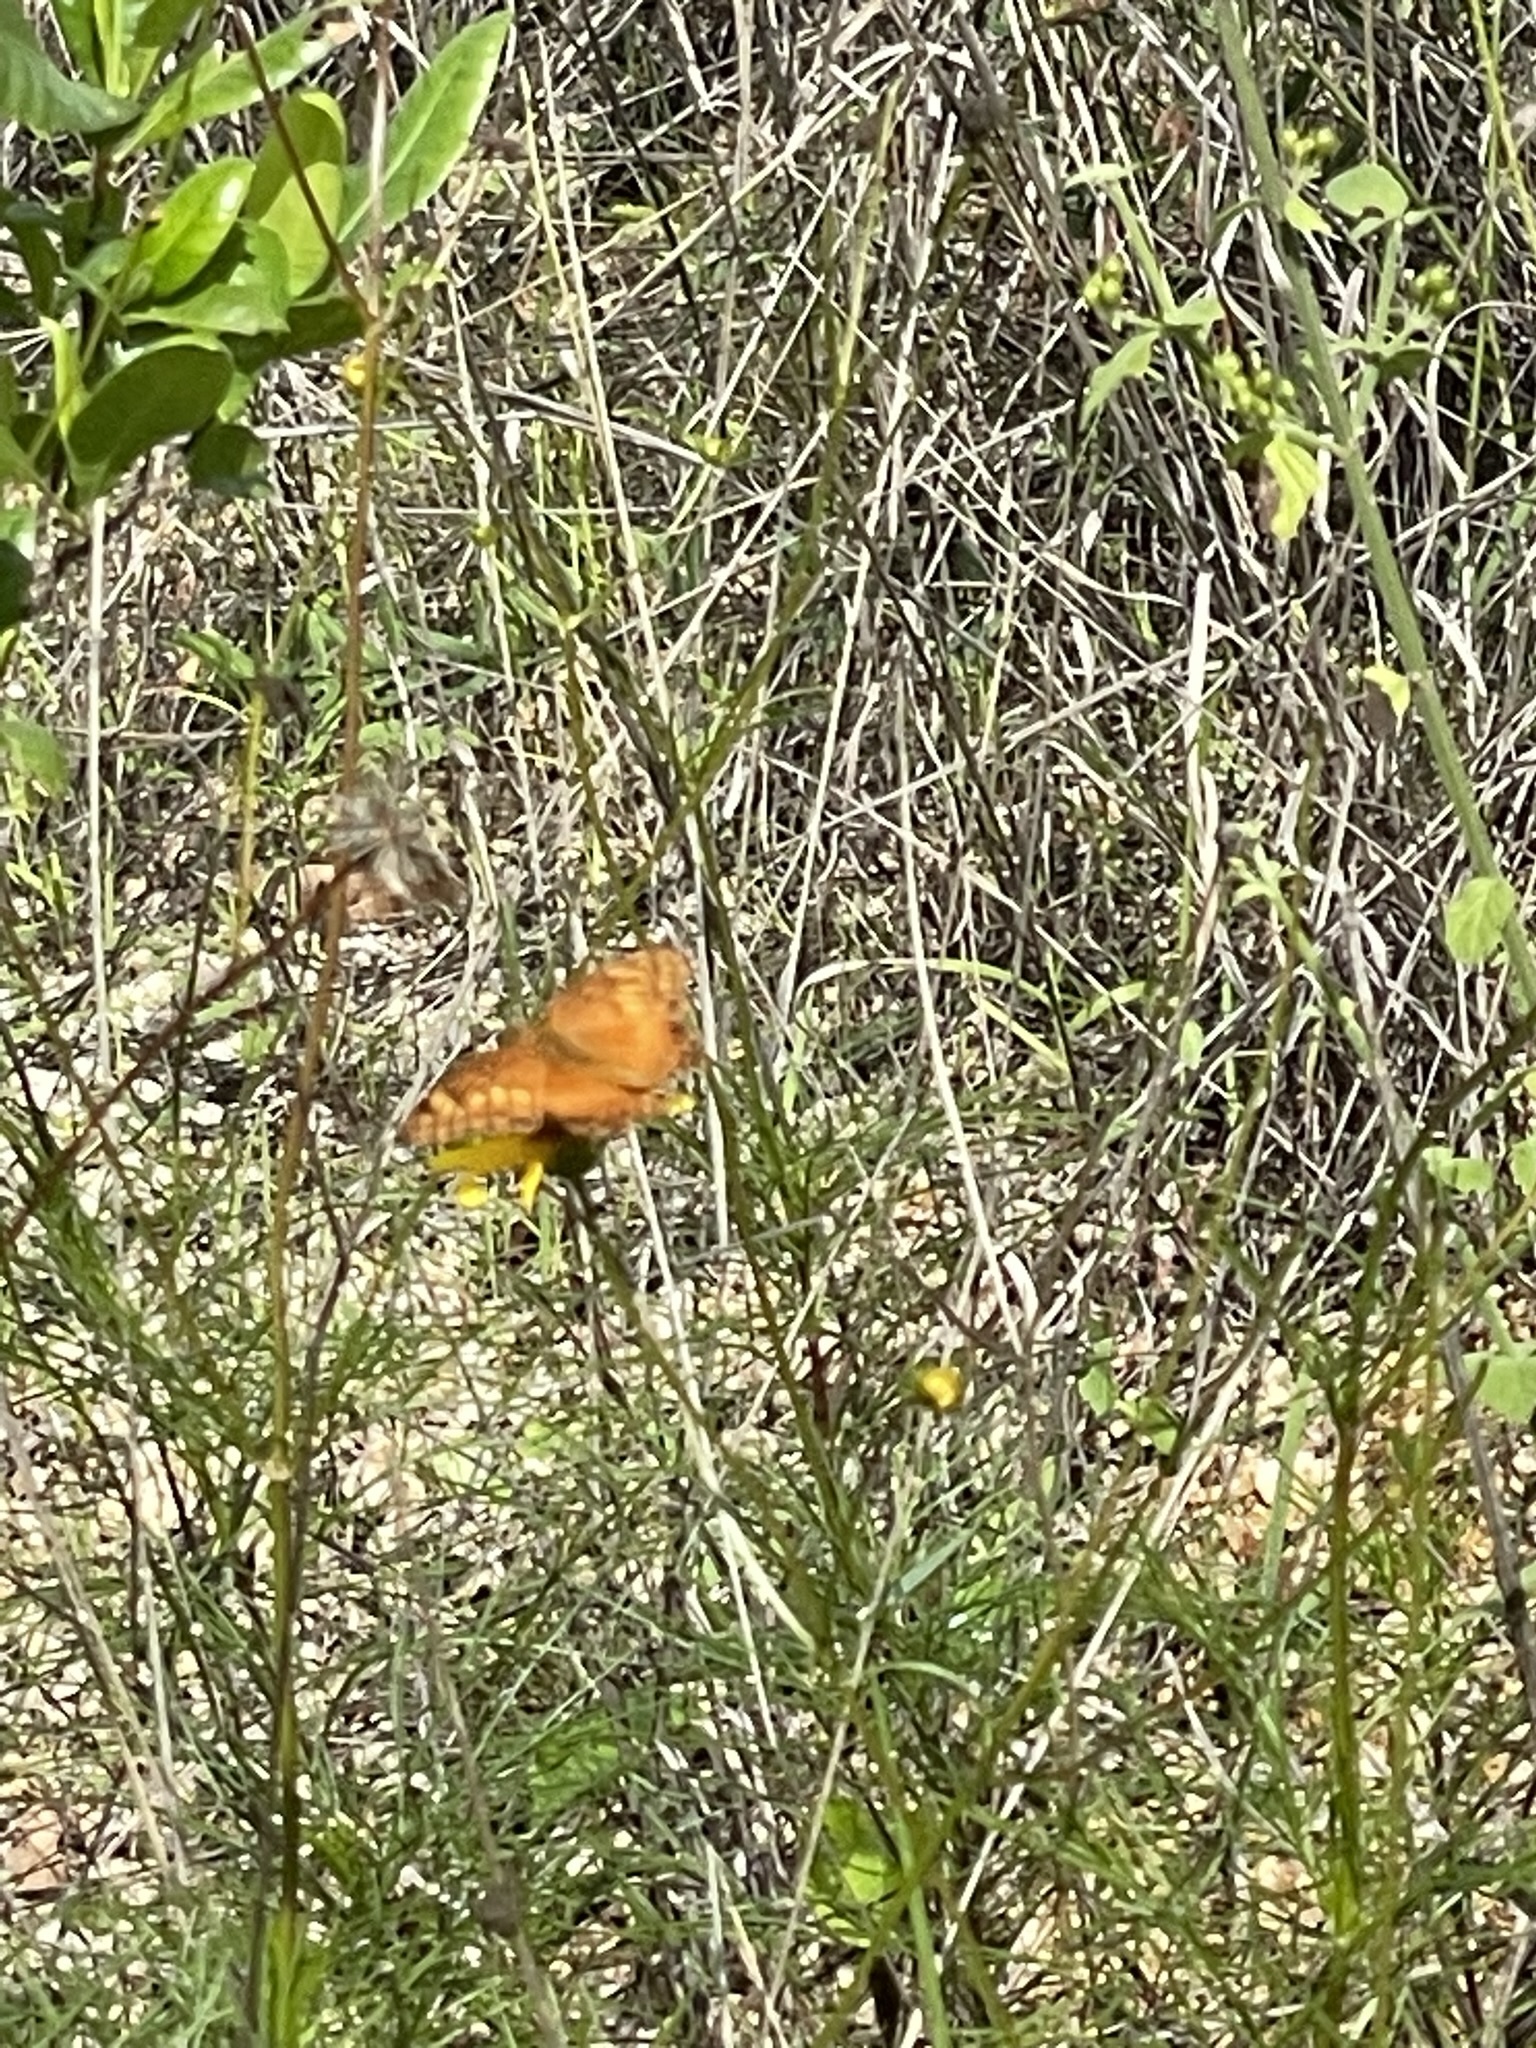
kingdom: Animalia
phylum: Arthropoda
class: Insecta
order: Lepidoptera
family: Nymphalidae
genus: Euptoieta
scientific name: Euptoieta hegesia
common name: Mexican fritillary
